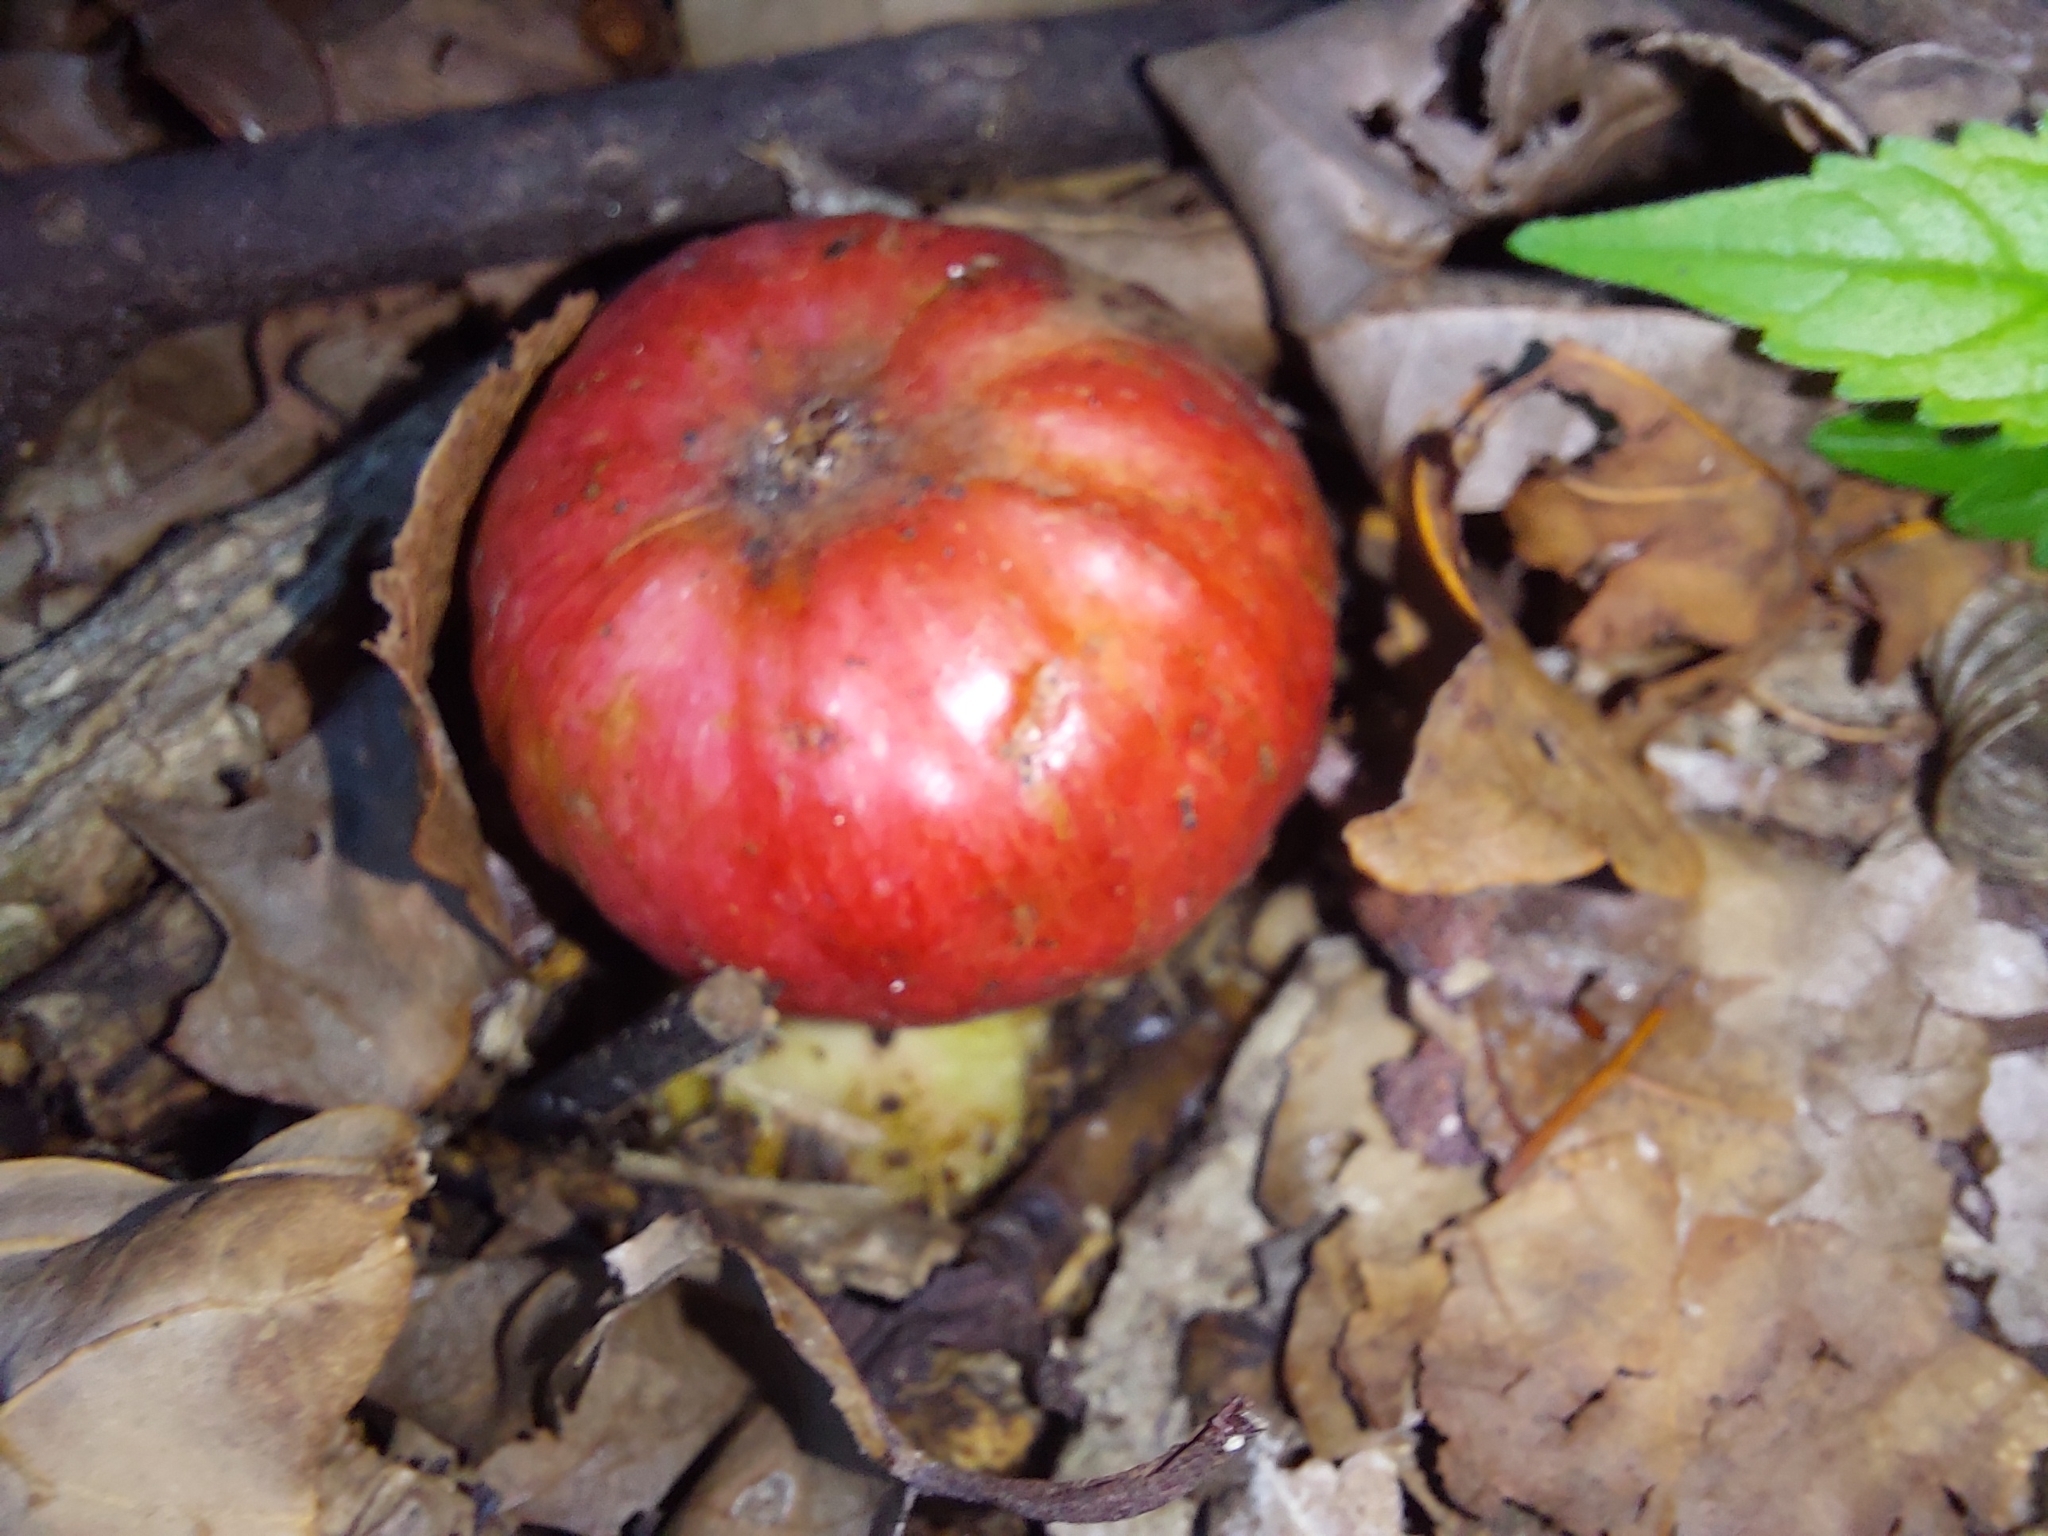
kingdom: Plantae
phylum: Tracheophyta
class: Magnoliopsida
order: Rosales
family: Moraceae
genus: Ficus
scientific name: Ficus sur
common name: Cape fig
